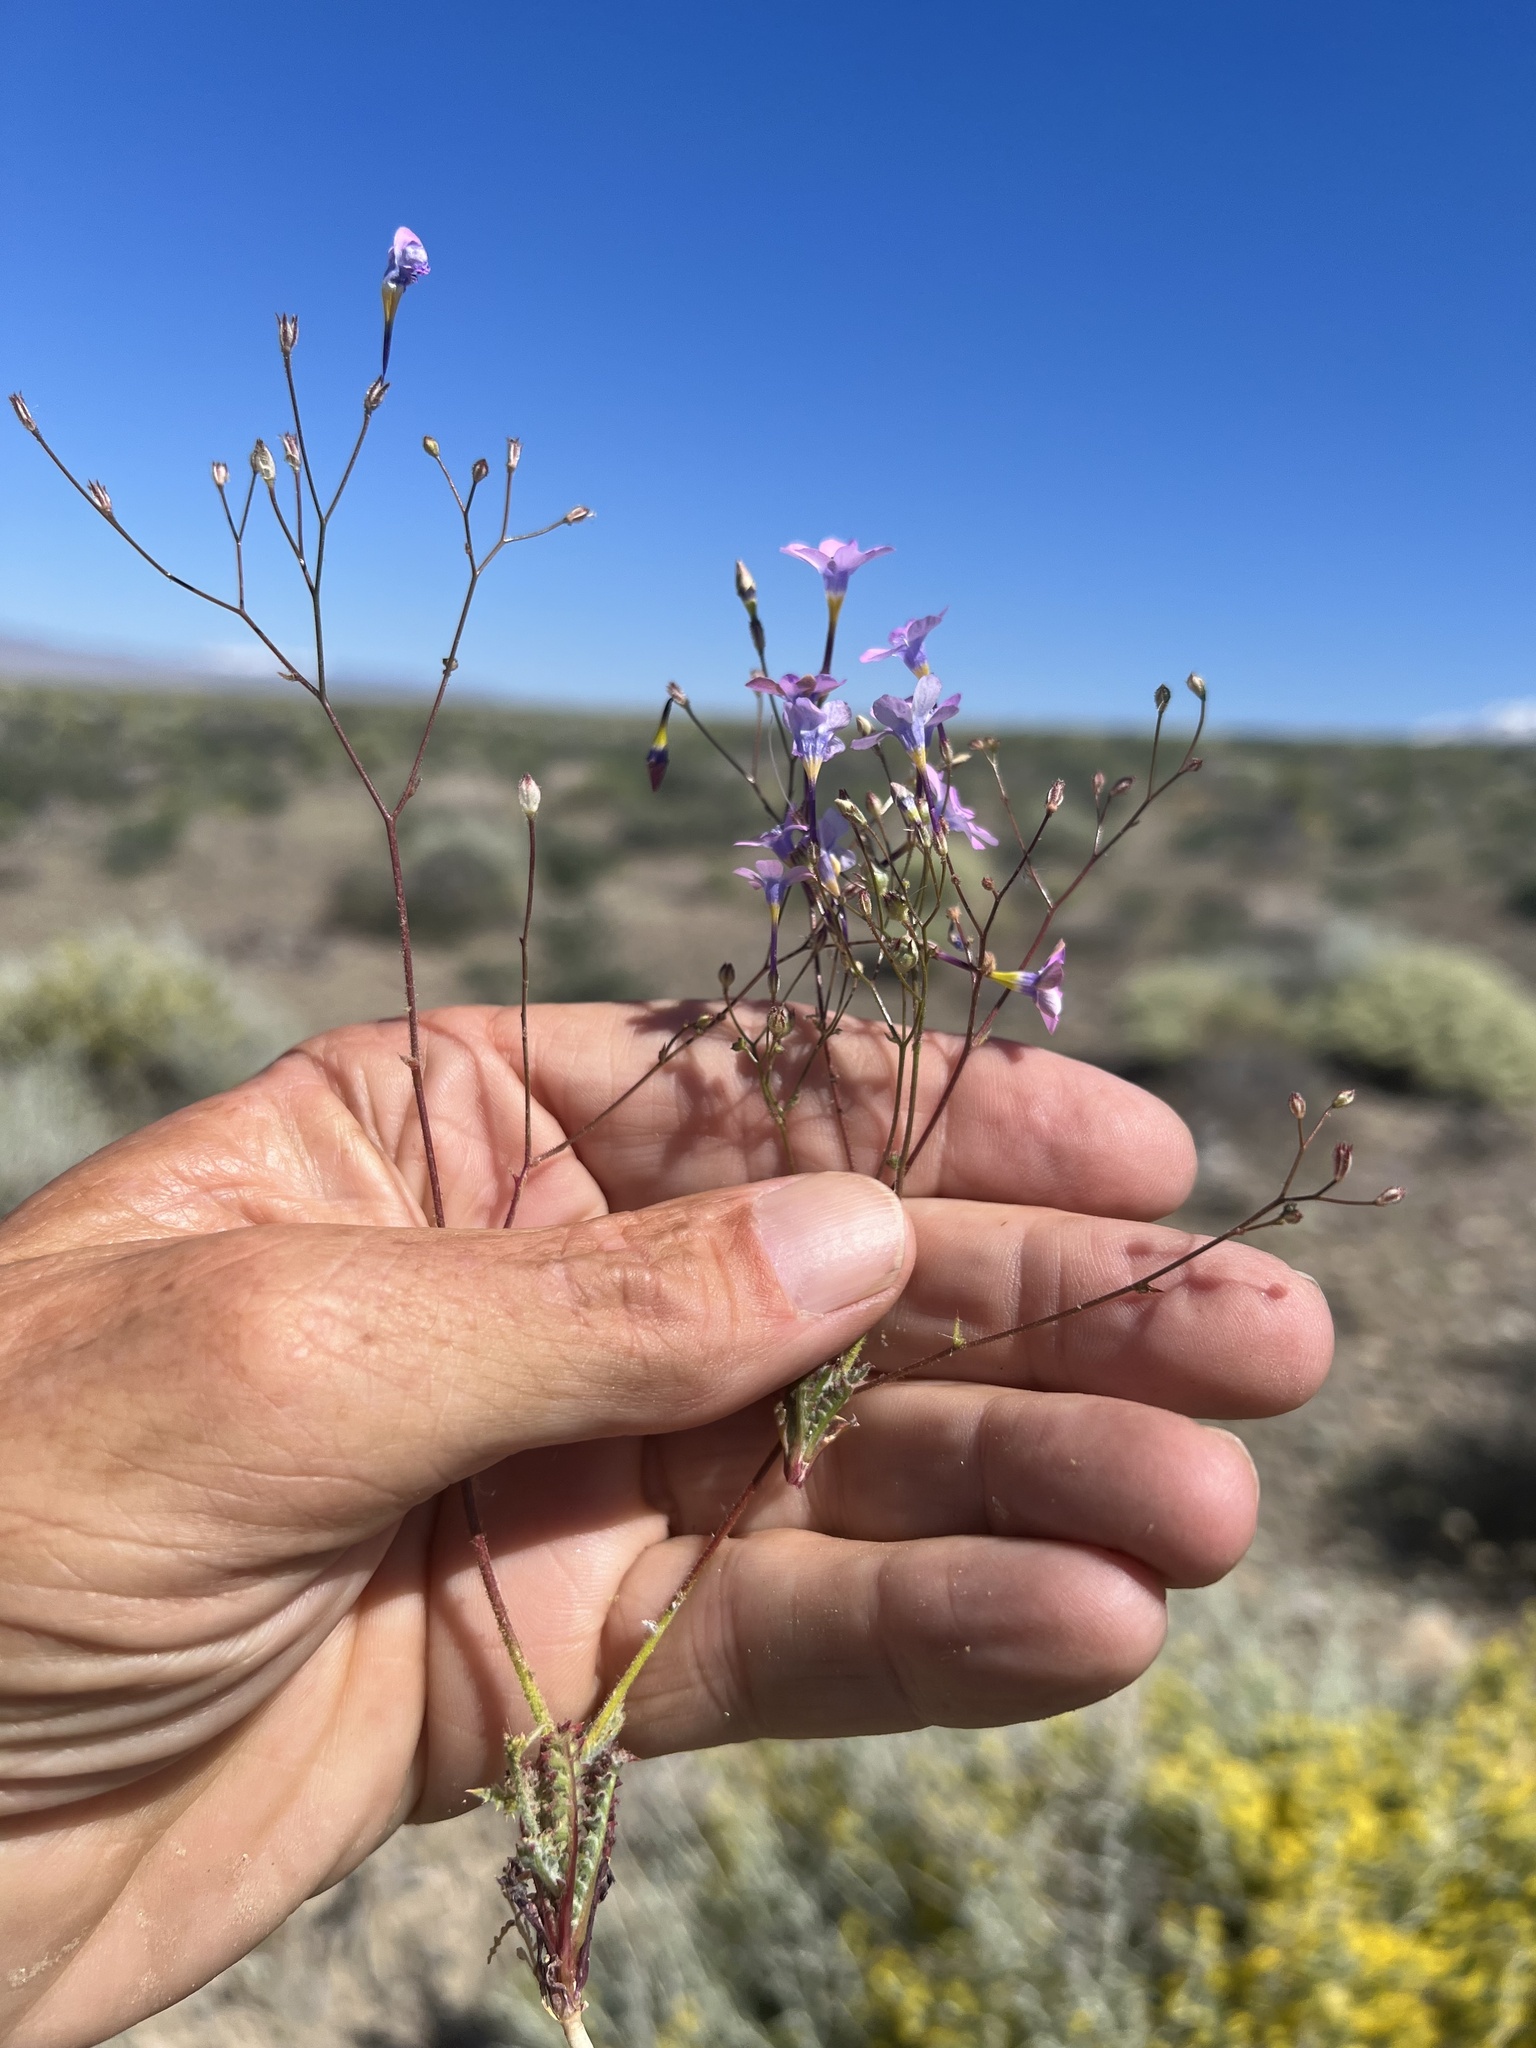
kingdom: Plantae
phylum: Tracheophyta
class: Magnoliopsida
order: Ericales
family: Polemoniaceae
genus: Gilia
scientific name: Gilia cana
